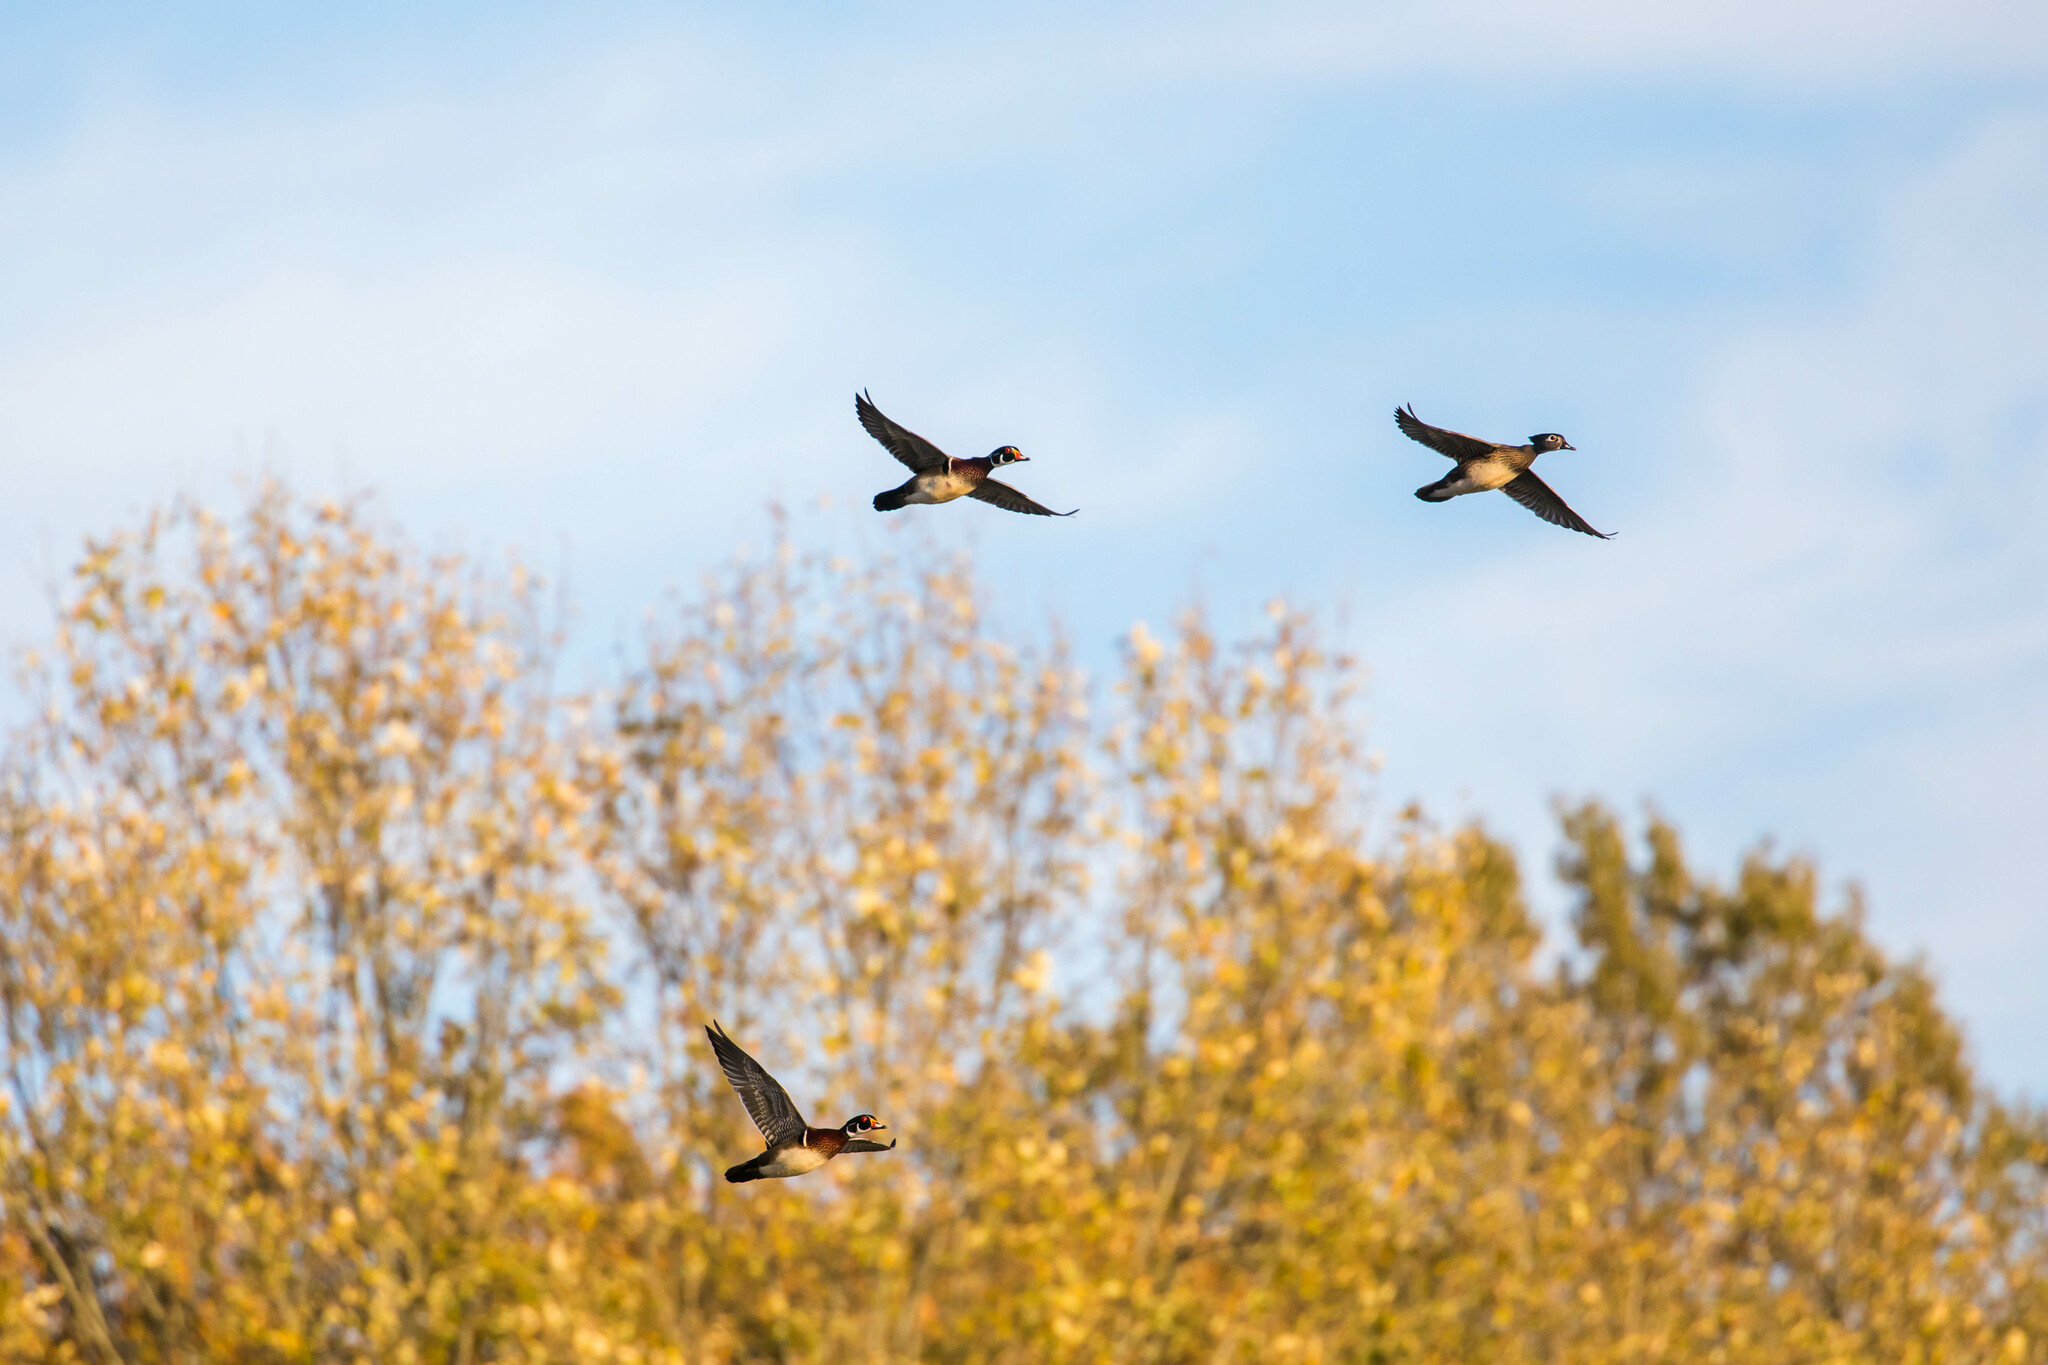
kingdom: Animalia
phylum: Chordata
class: Aves
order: Anseriformes
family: Anatidae
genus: Aix
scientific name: Aix sponsa
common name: Wood duck
